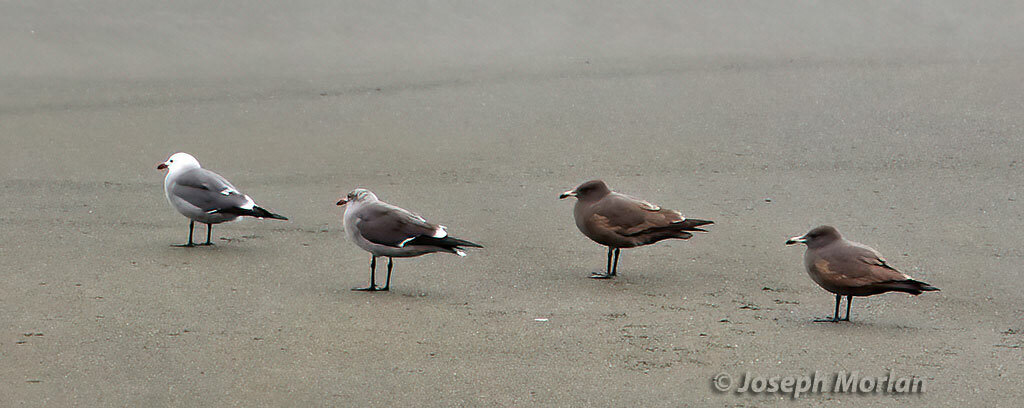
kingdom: Animalia
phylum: Chordata
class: Aves
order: Charadriiformes
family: Laridae
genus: Larus
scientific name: Larus heermanni
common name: Heermann's gull
